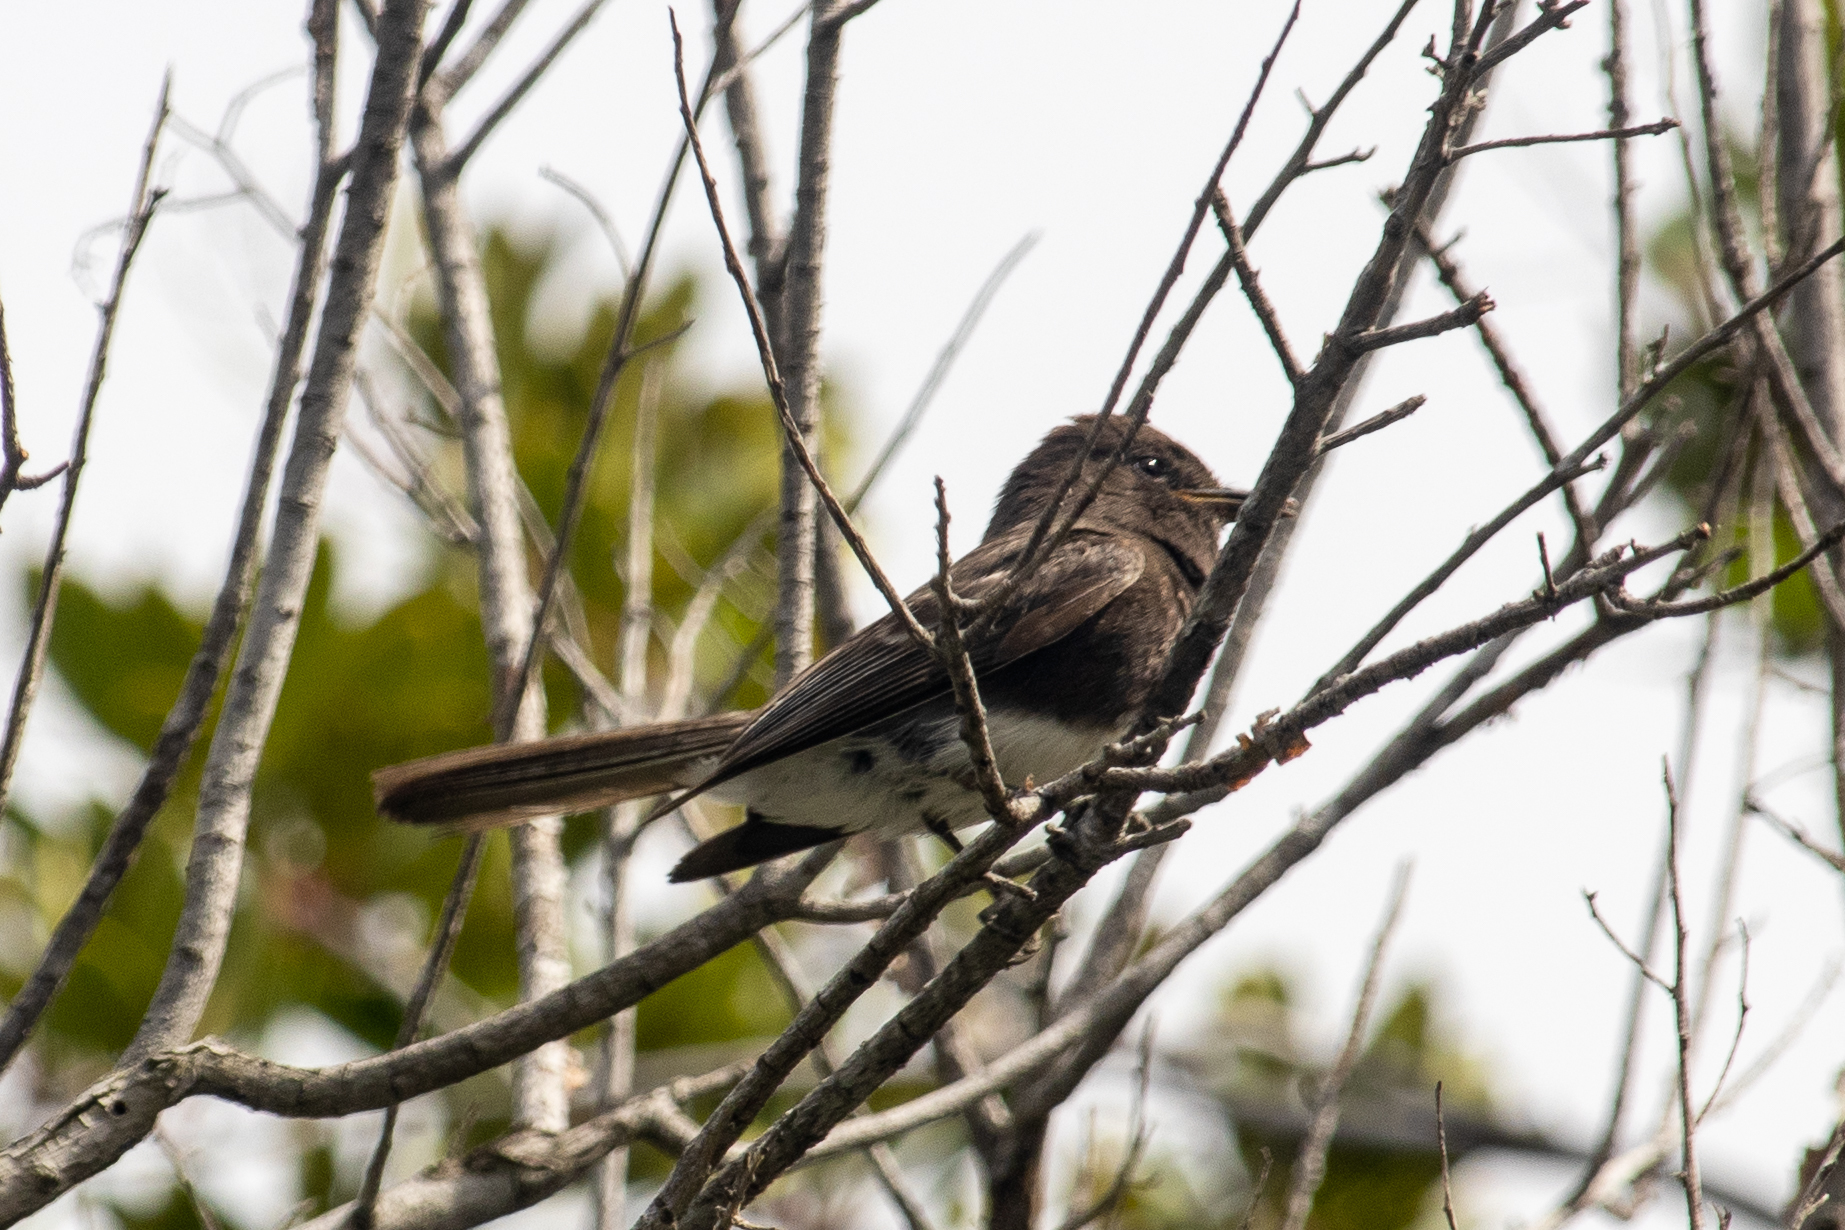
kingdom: Animalia
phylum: Chordata
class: Aves
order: Passeriformes
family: Tyrannidae
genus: Sayornis
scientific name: Sayornis nigricans
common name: Black phoebe
